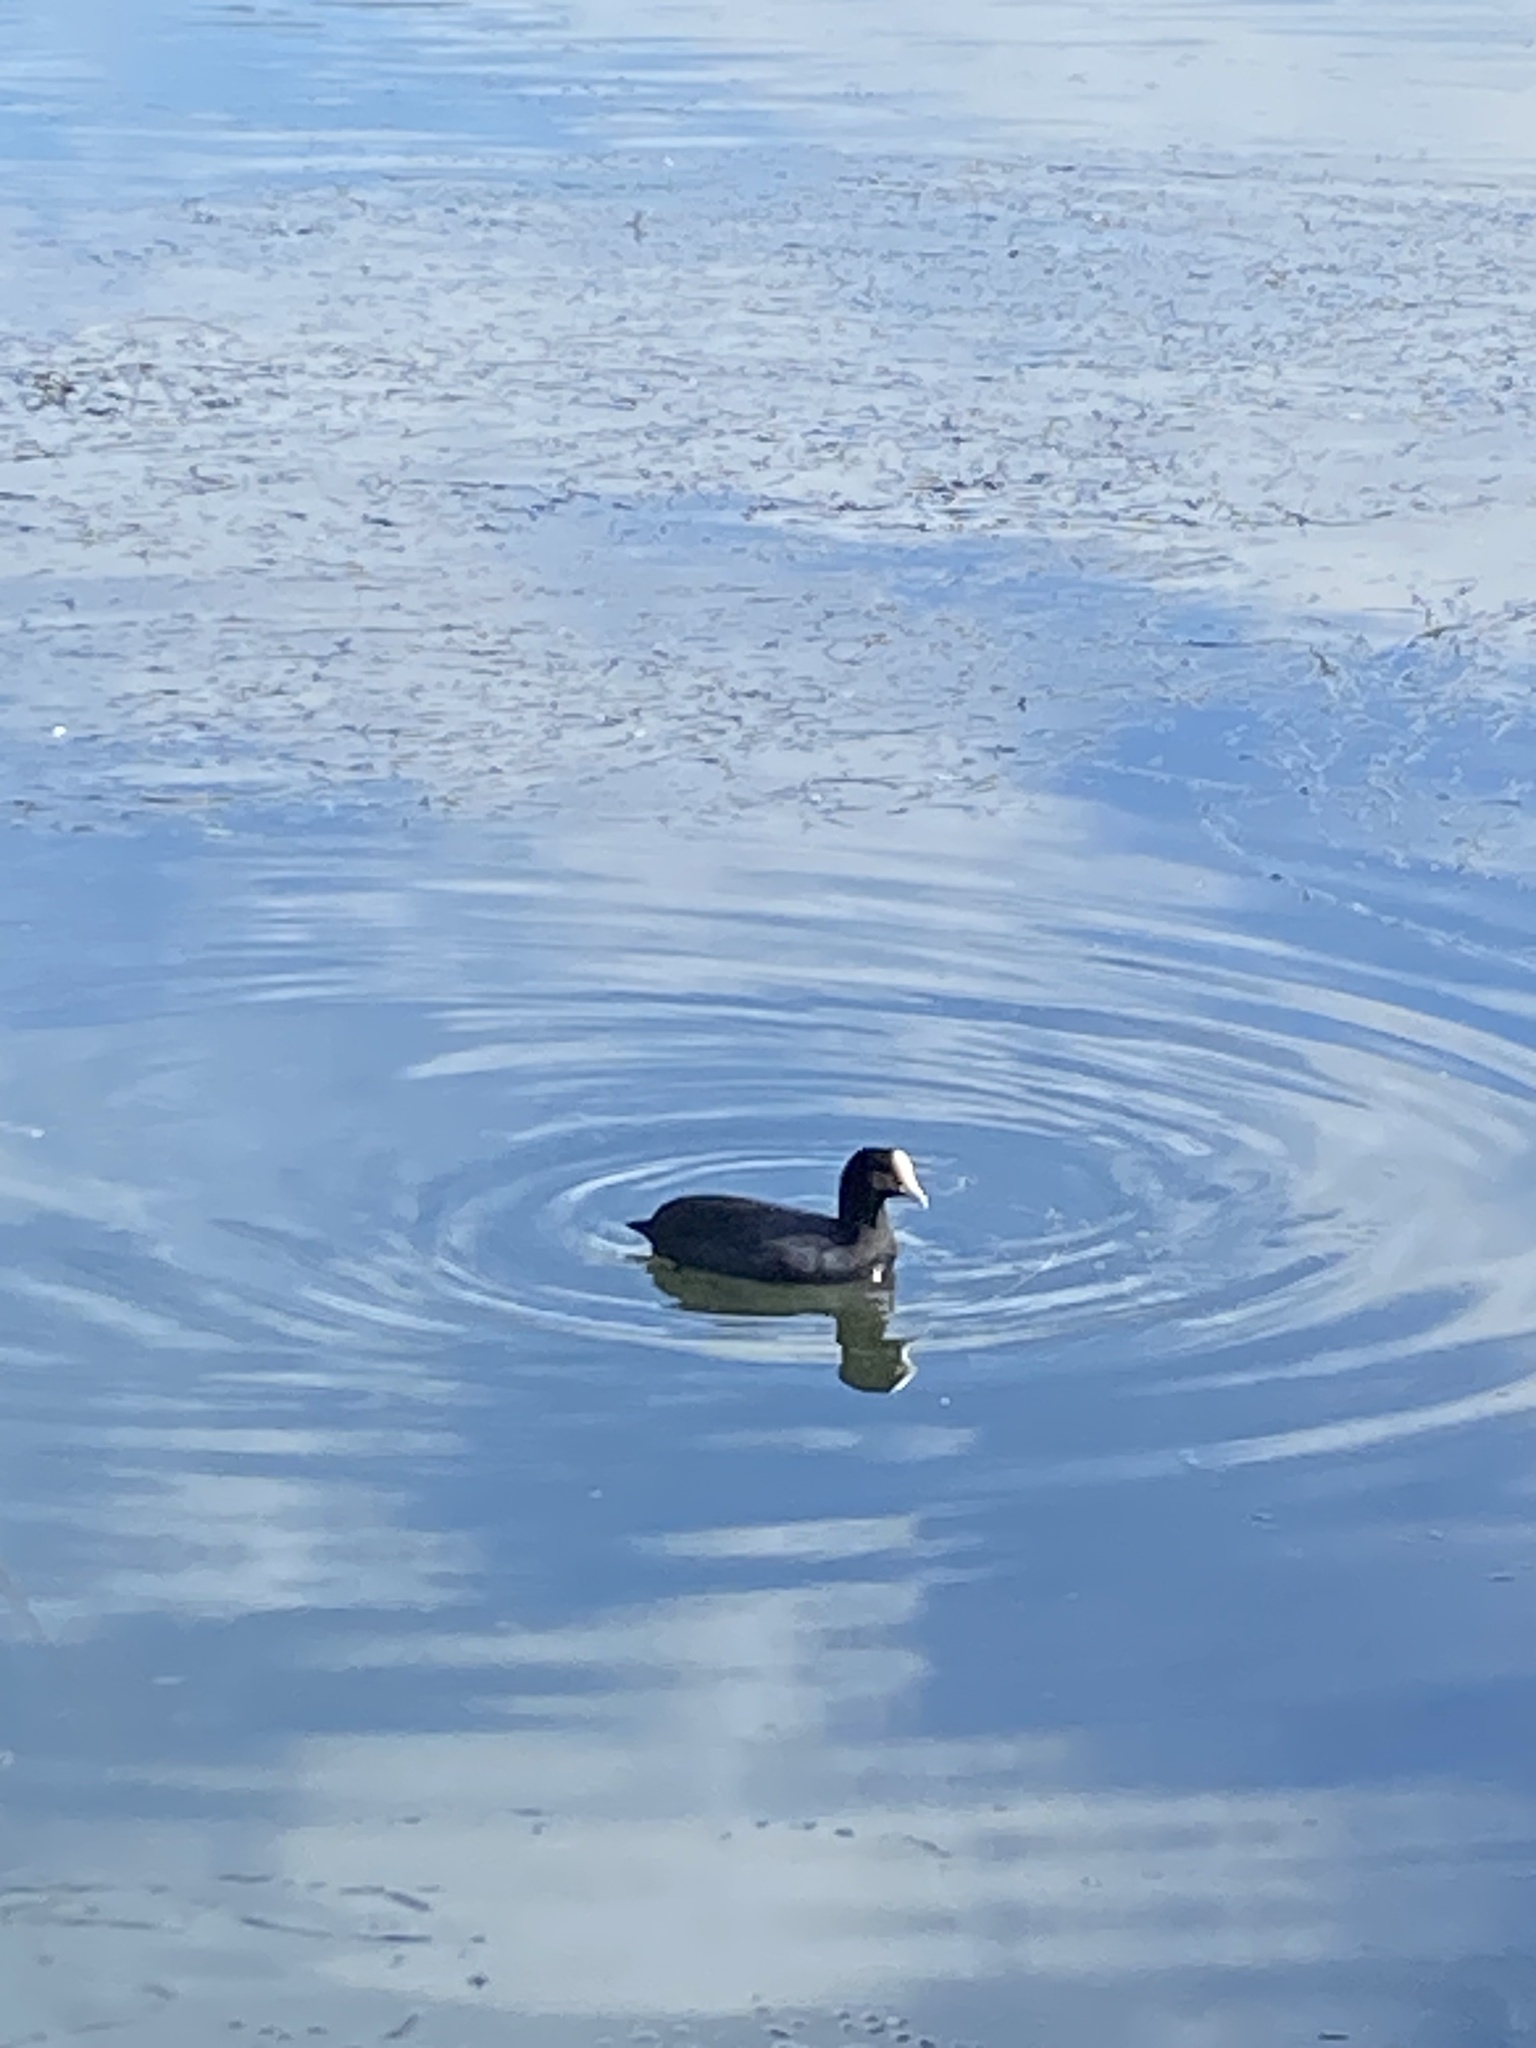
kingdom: Animalia
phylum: Chordata
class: Aves
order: Gruiformes
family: Rallidae
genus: Fulica
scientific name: Fulica atra
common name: Eurasian coot
